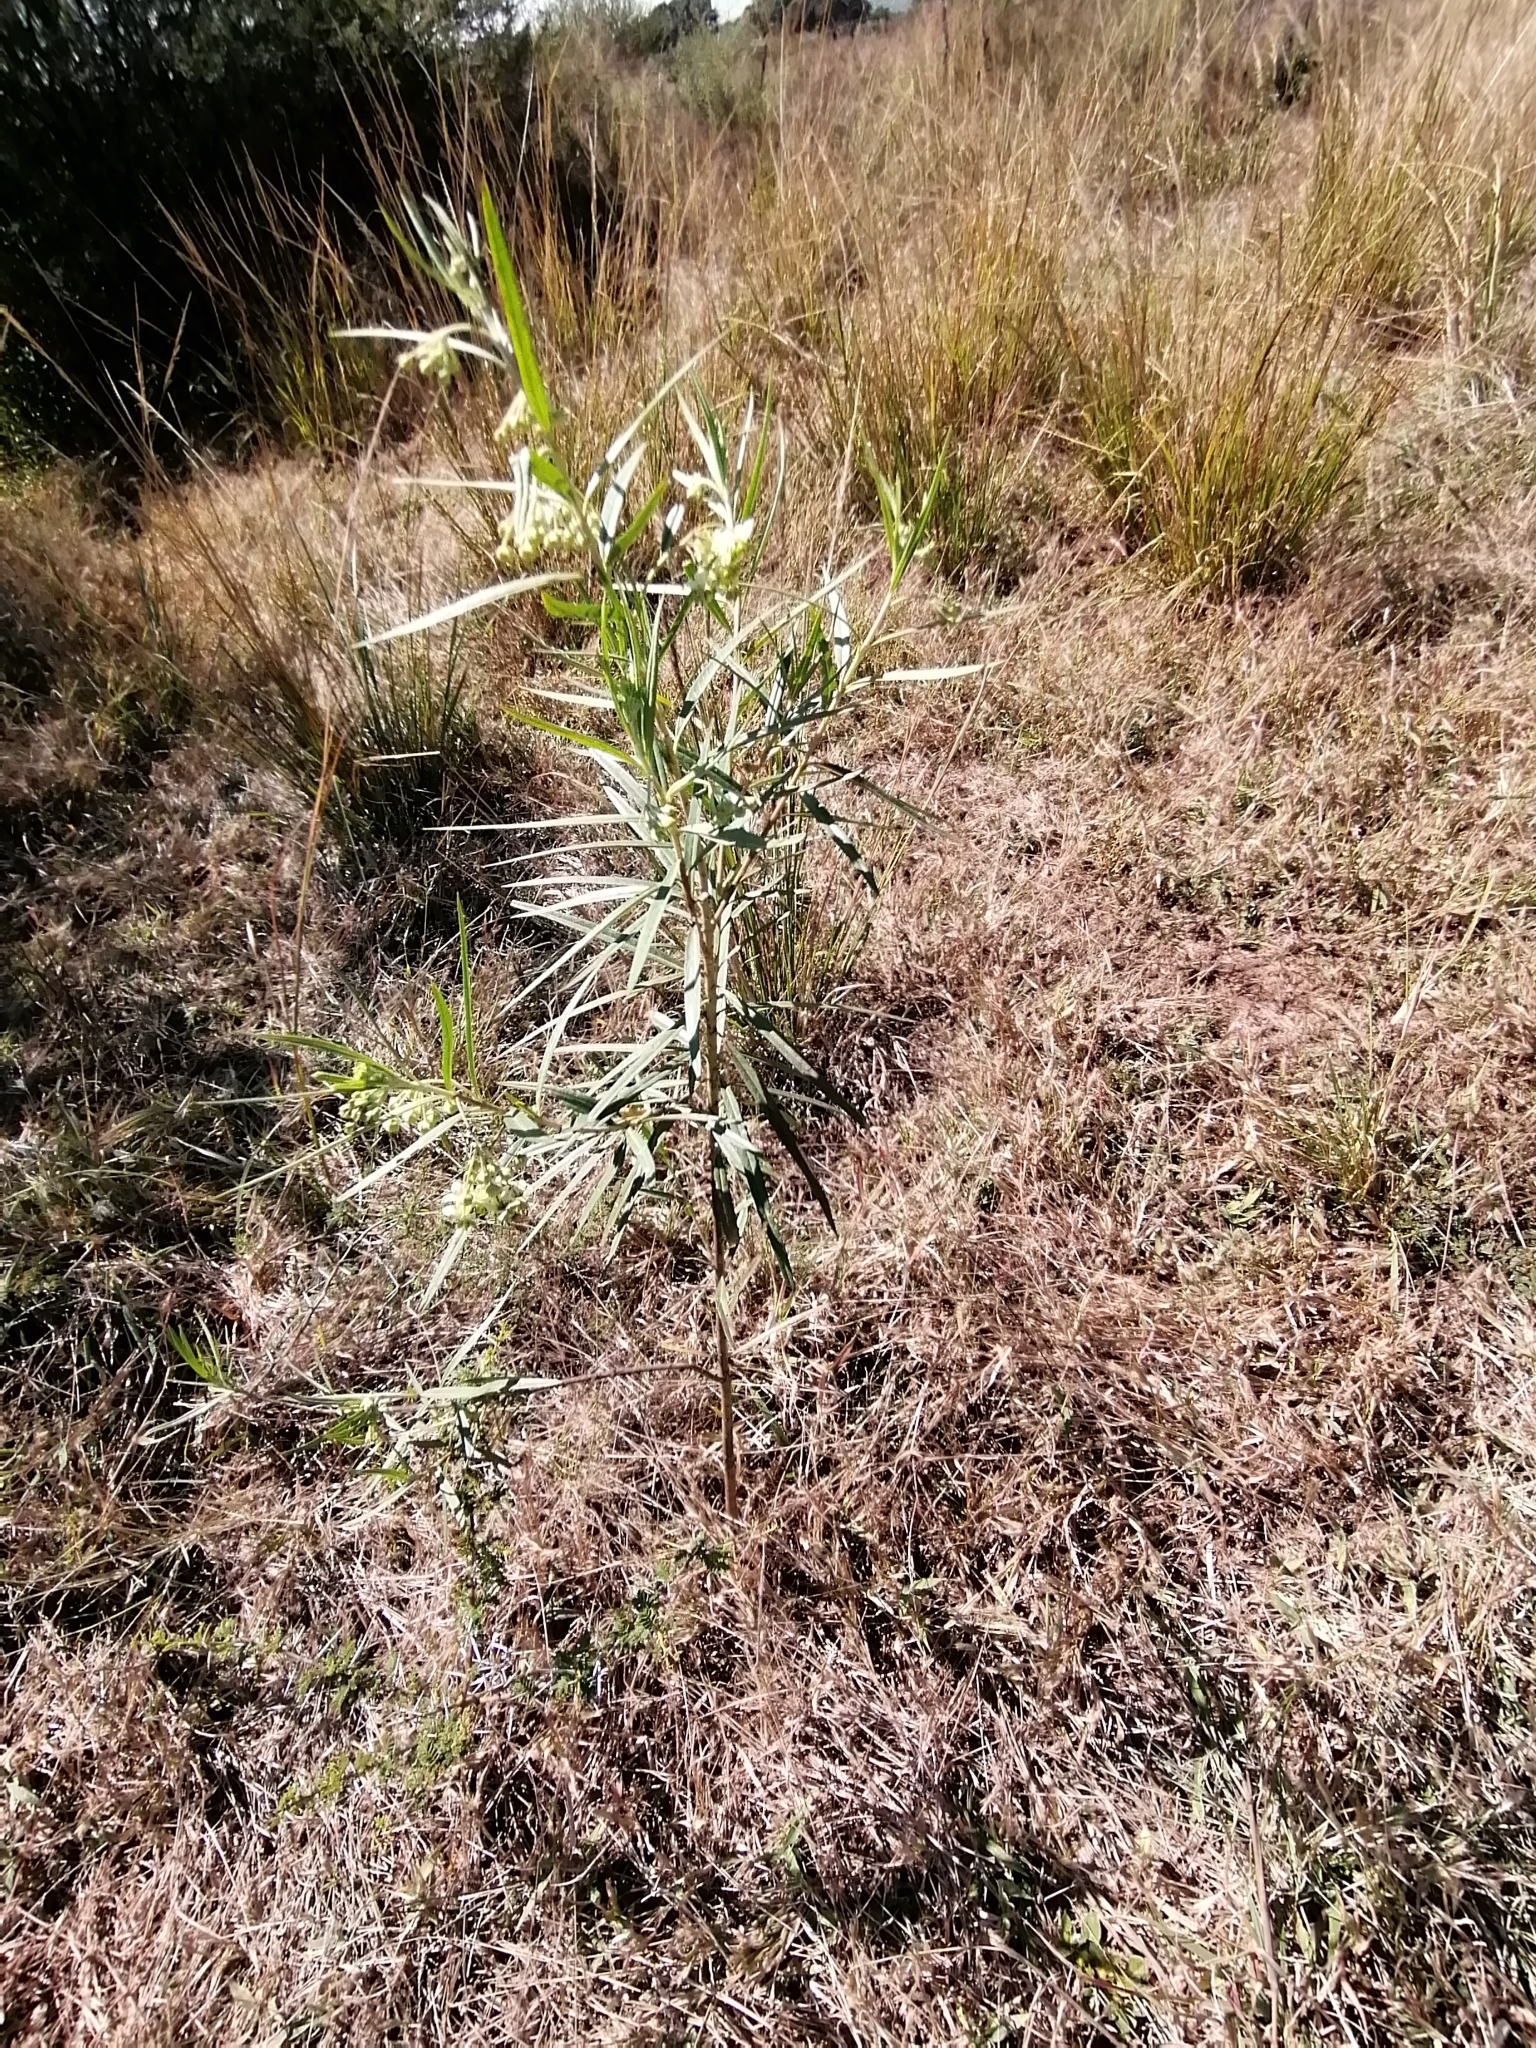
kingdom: Plantae
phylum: Tracheophyta
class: Magnoliopsida
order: Gentianales
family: Apocynaceae
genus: Gomphocarpus
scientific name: Gomphocarpus fruticosus
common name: Milkweed
